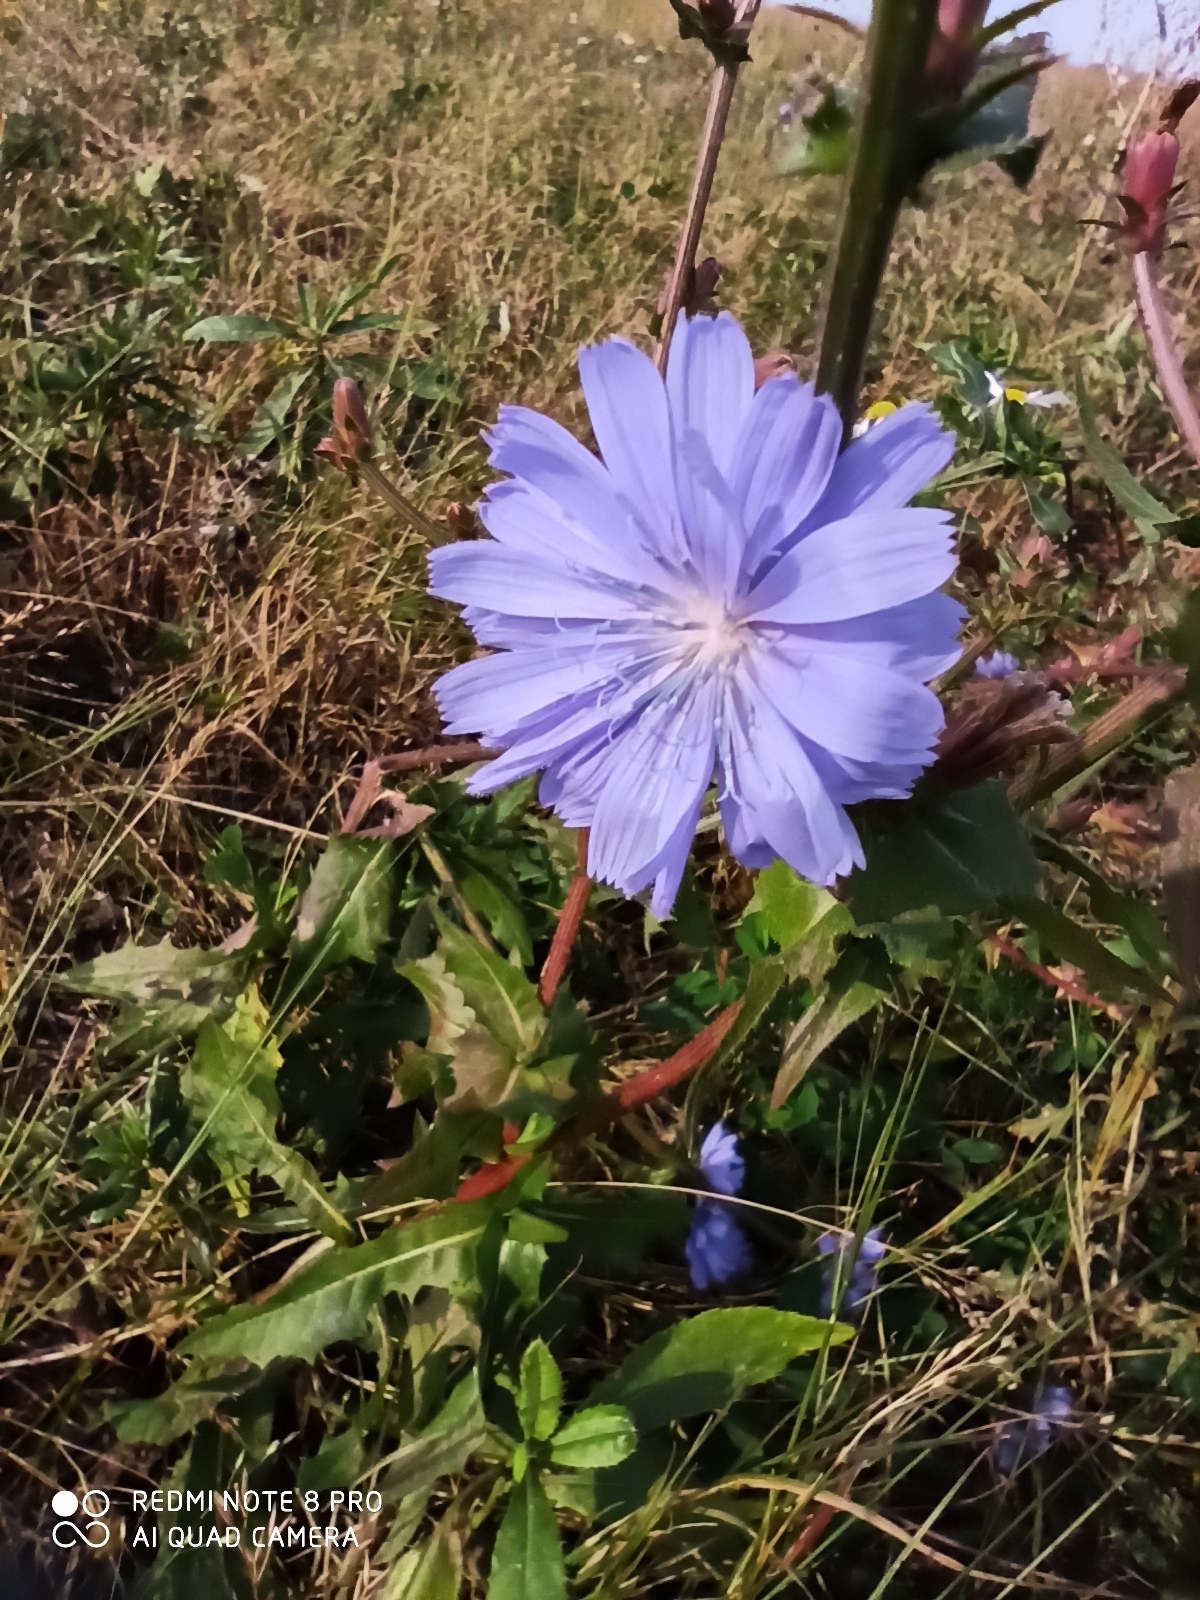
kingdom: Plantae
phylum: Tracheophyta
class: Magnoliopsida
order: Asterales
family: Asteraceae
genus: Cichorium
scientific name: Cichorium intybus
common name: Chicory
